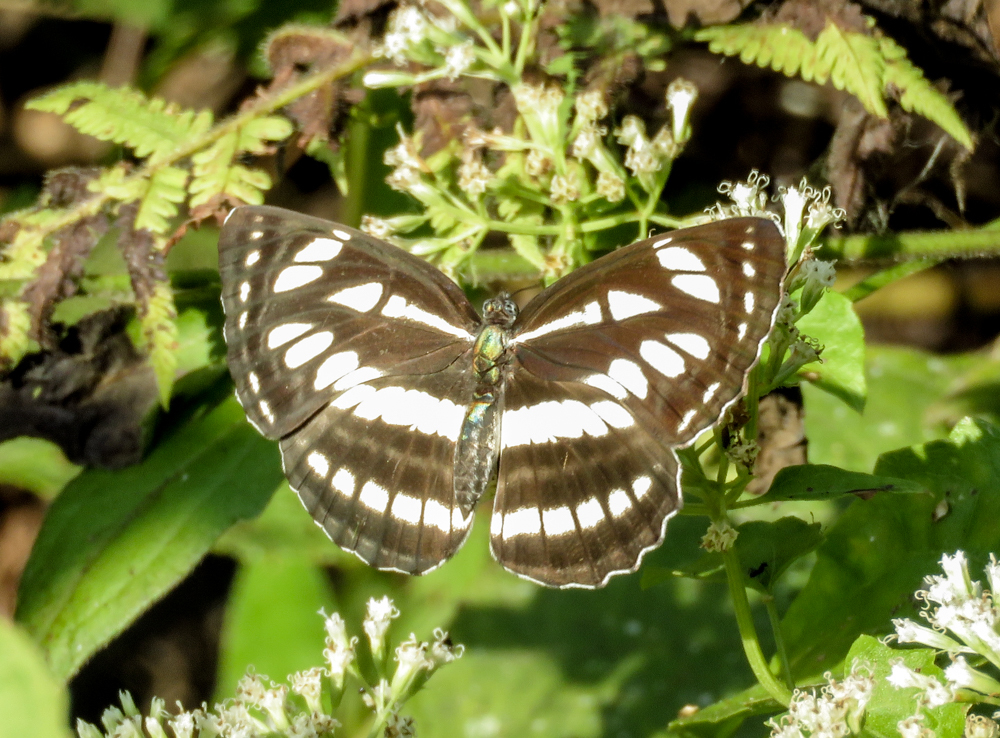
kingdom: Animalia
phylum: Arthropoda
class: Insecta
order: Lepidoptera
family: Nymphalidae
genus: Neptis
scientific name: Neptis hylas
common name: Common sailer
